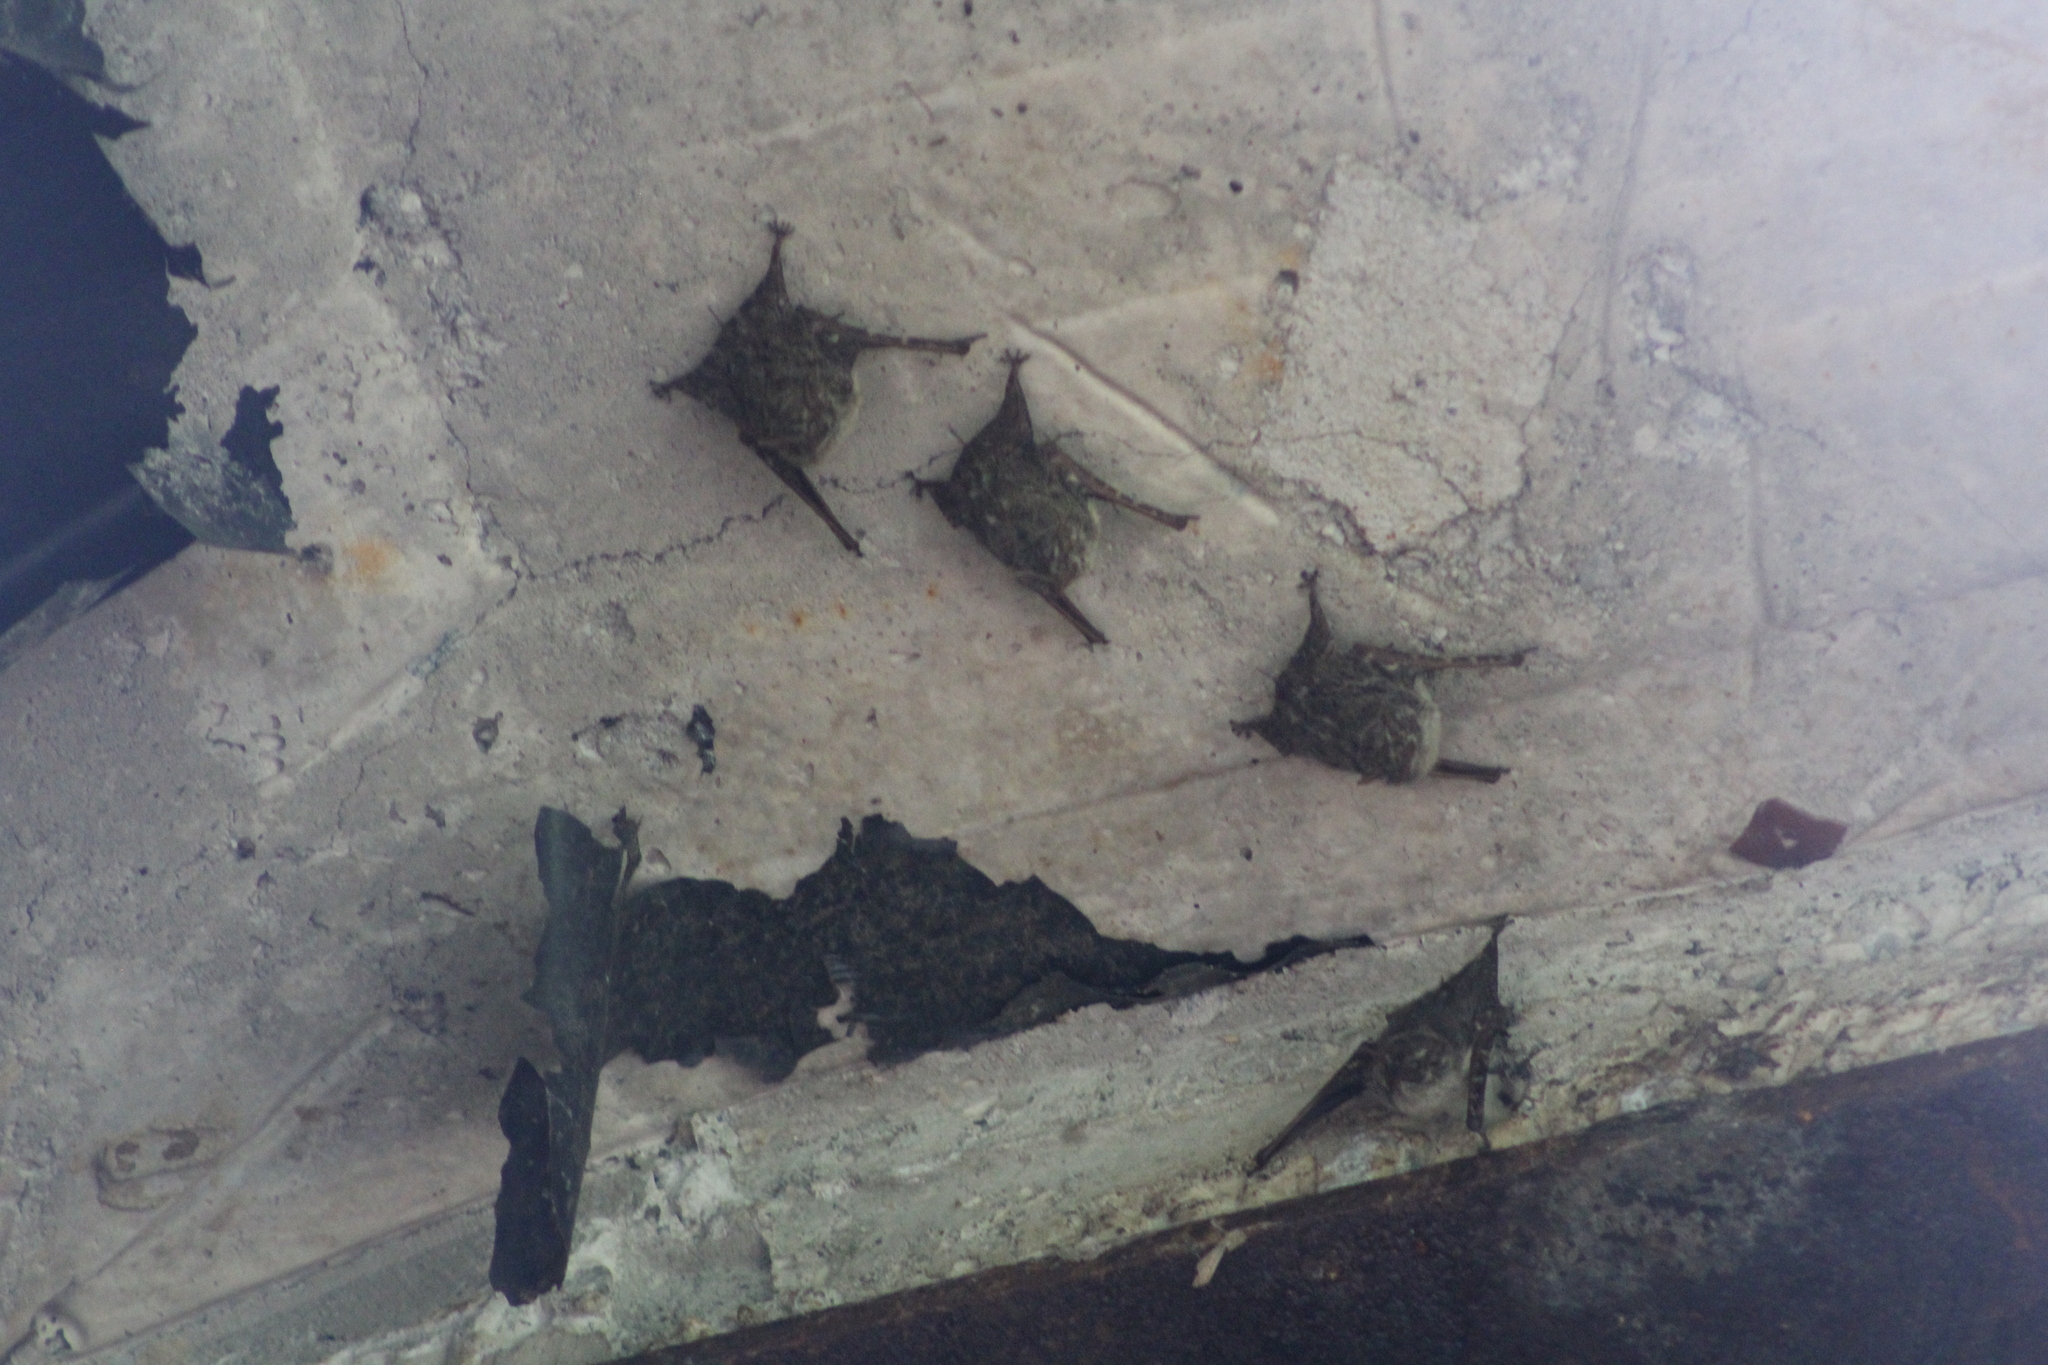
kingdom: Animalia
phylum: Chordata
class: Mammalia
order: Chiroptera
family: Emballonuridae
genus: Rhynchonycteris
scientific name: Rhynchonycteris naso
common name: Proboscis bat
